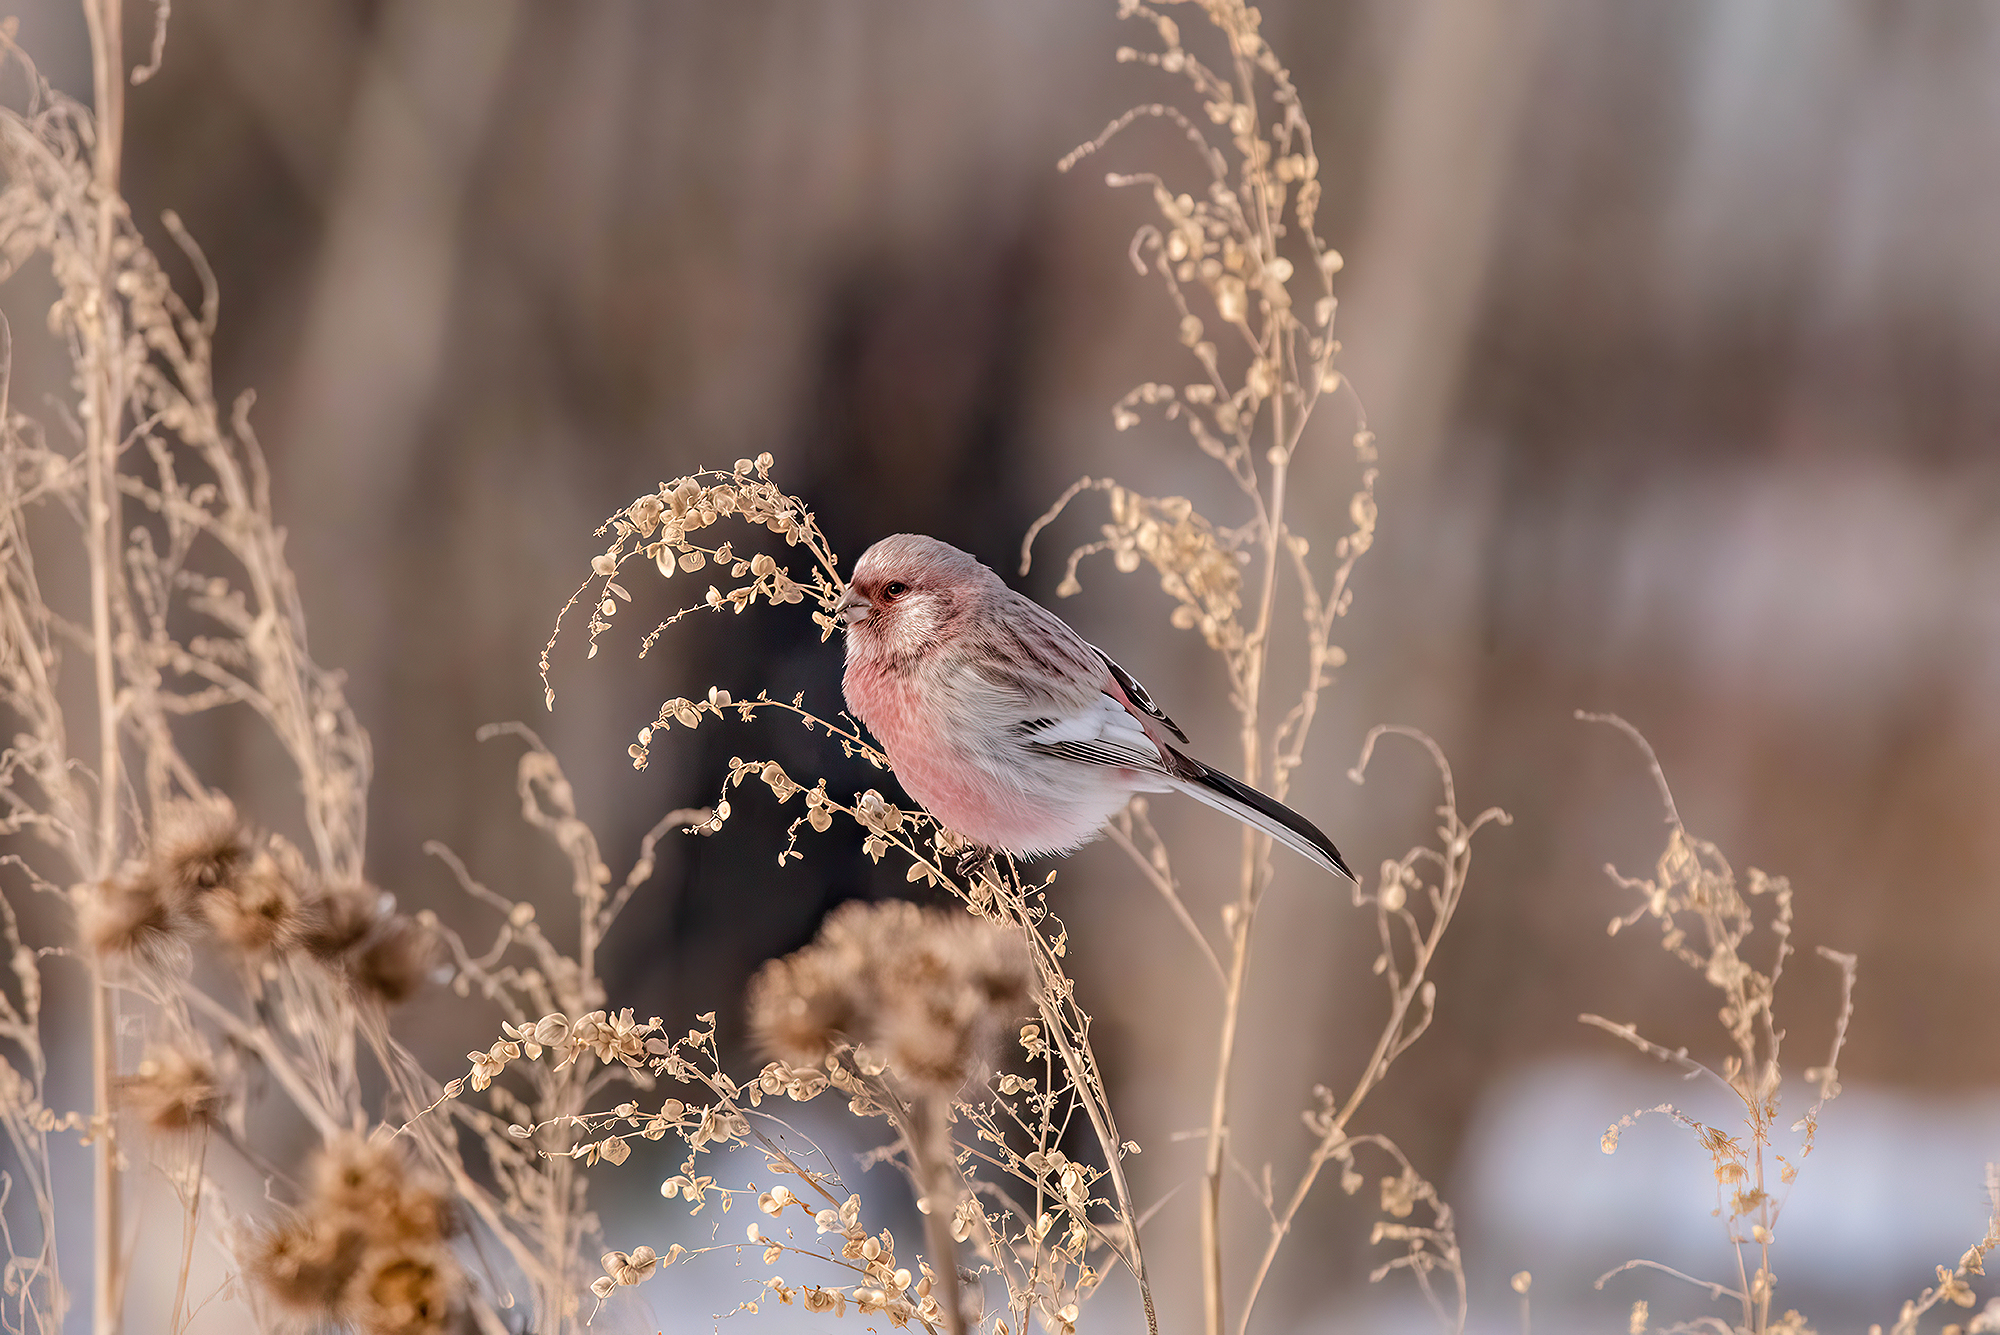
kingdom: Animalia
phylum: Chordata
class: Aves
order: Passeriformes
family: Fringillidae
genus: Carpodacus
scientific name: Carpodacus sibiricus
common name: Long-tailed rosefinch
